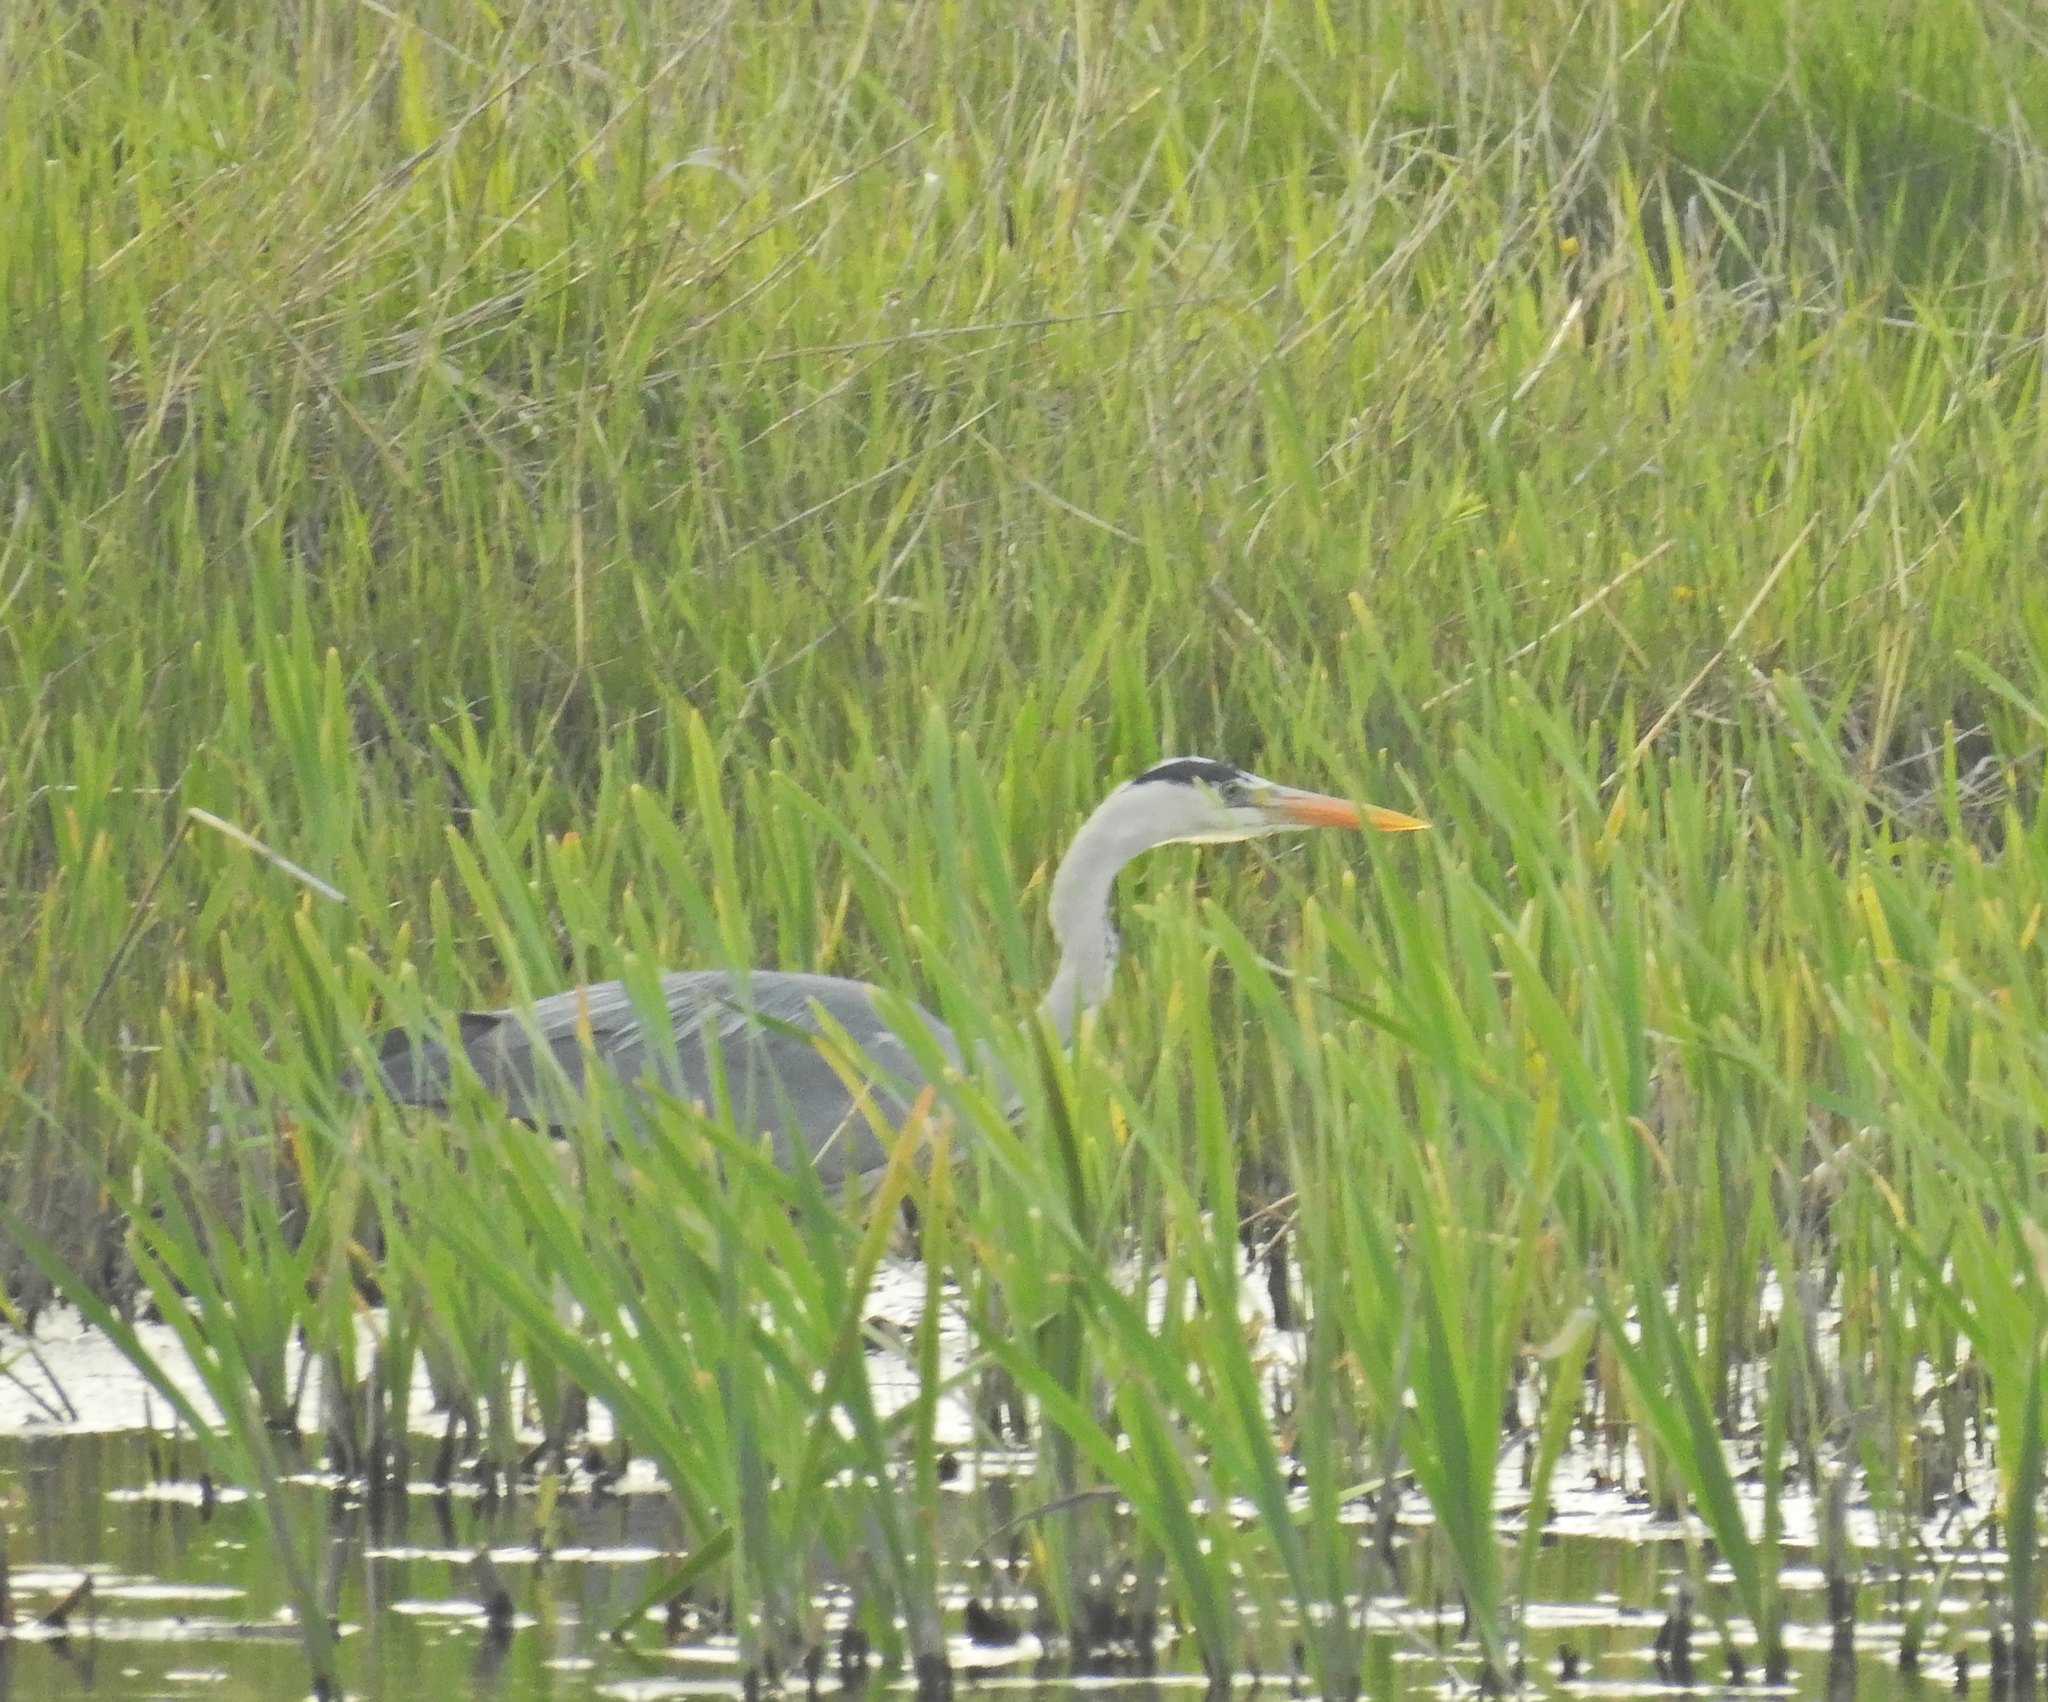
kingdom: Animalia
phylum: Chordata
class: Aves
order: Pelecaniformes
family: Ardeidae
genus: Ardea
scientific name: Ardea cinerea
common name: Grey heron
